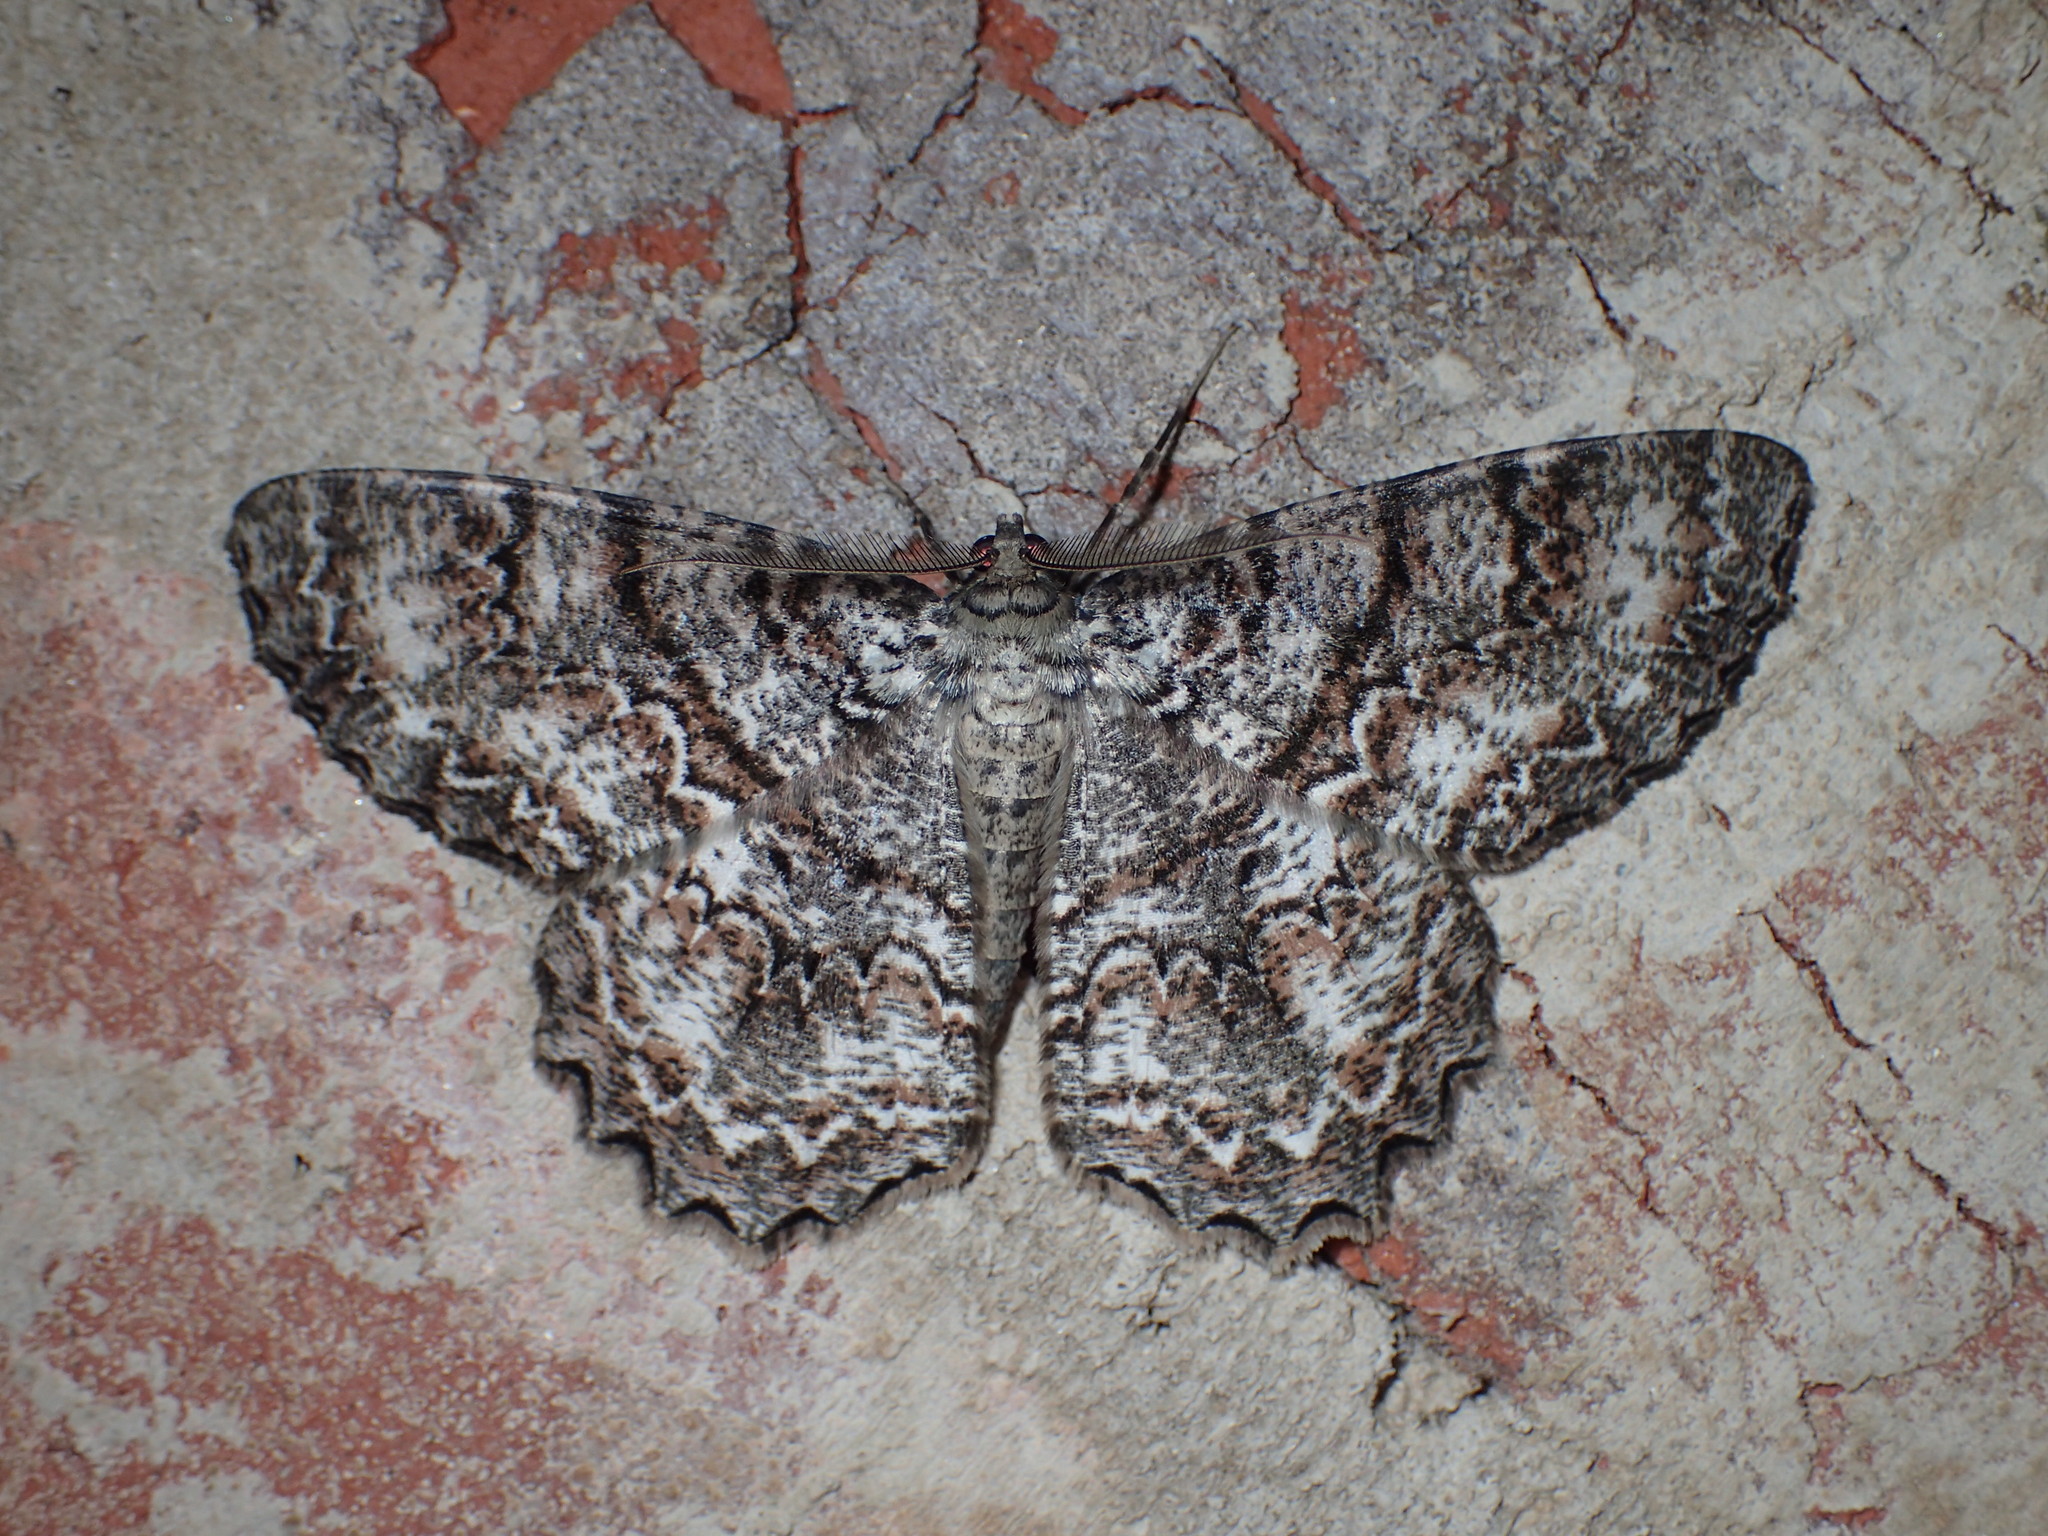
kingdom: Animalia
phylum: Arthropoda
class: Insecta
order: Lepidoptera
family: Geometridae
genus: Epimecis
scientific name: Epimecis hortaria
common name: Tulip-tree beauty
